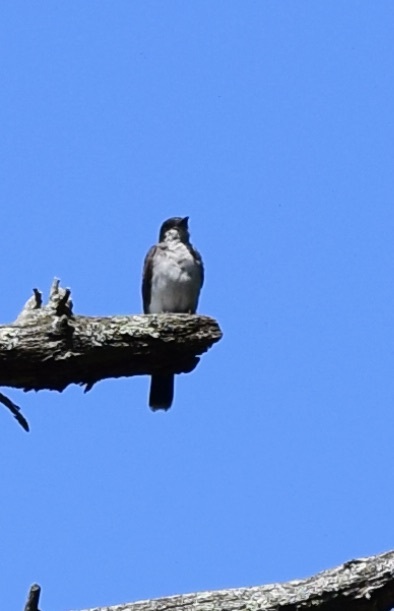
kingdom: Animalia
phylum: Chordata
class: Aves
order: Passeriformes
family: Tyrannidae
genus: Tyrannus
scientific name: Tyrannus tyrannus
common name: Eastern kingbird
